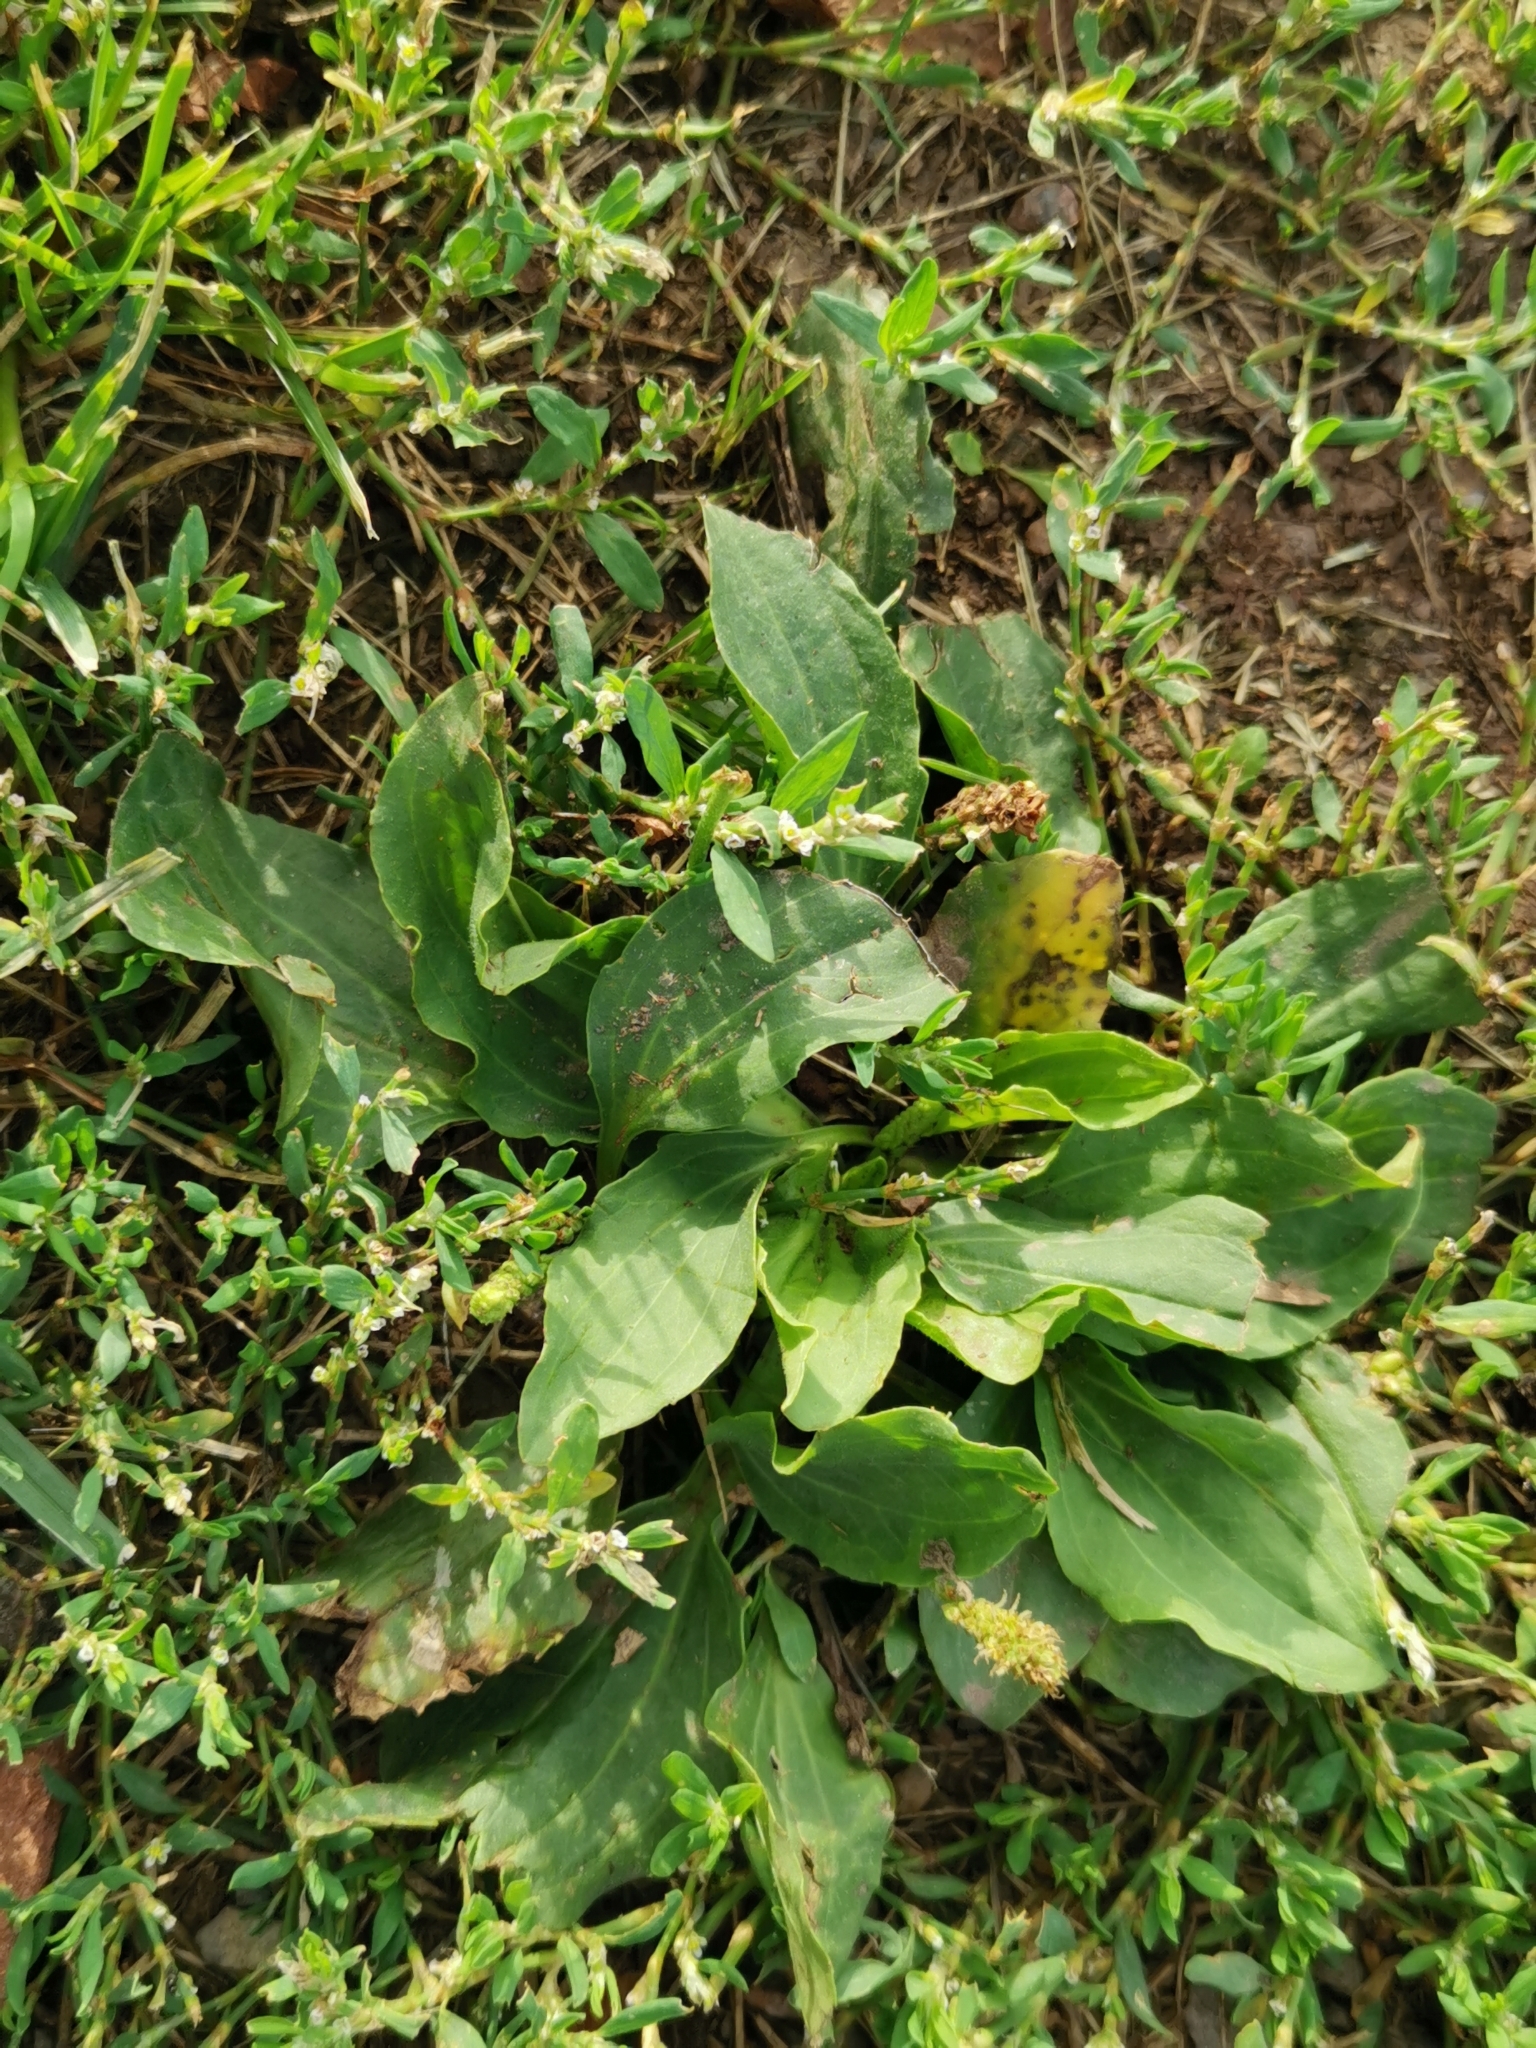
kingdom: Plantae
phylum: Tracheophyta
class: Magnoliopsida
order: Lamiales
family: Plantaginaceae
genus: Plantago
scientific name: Plantago major
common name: Common plantain
